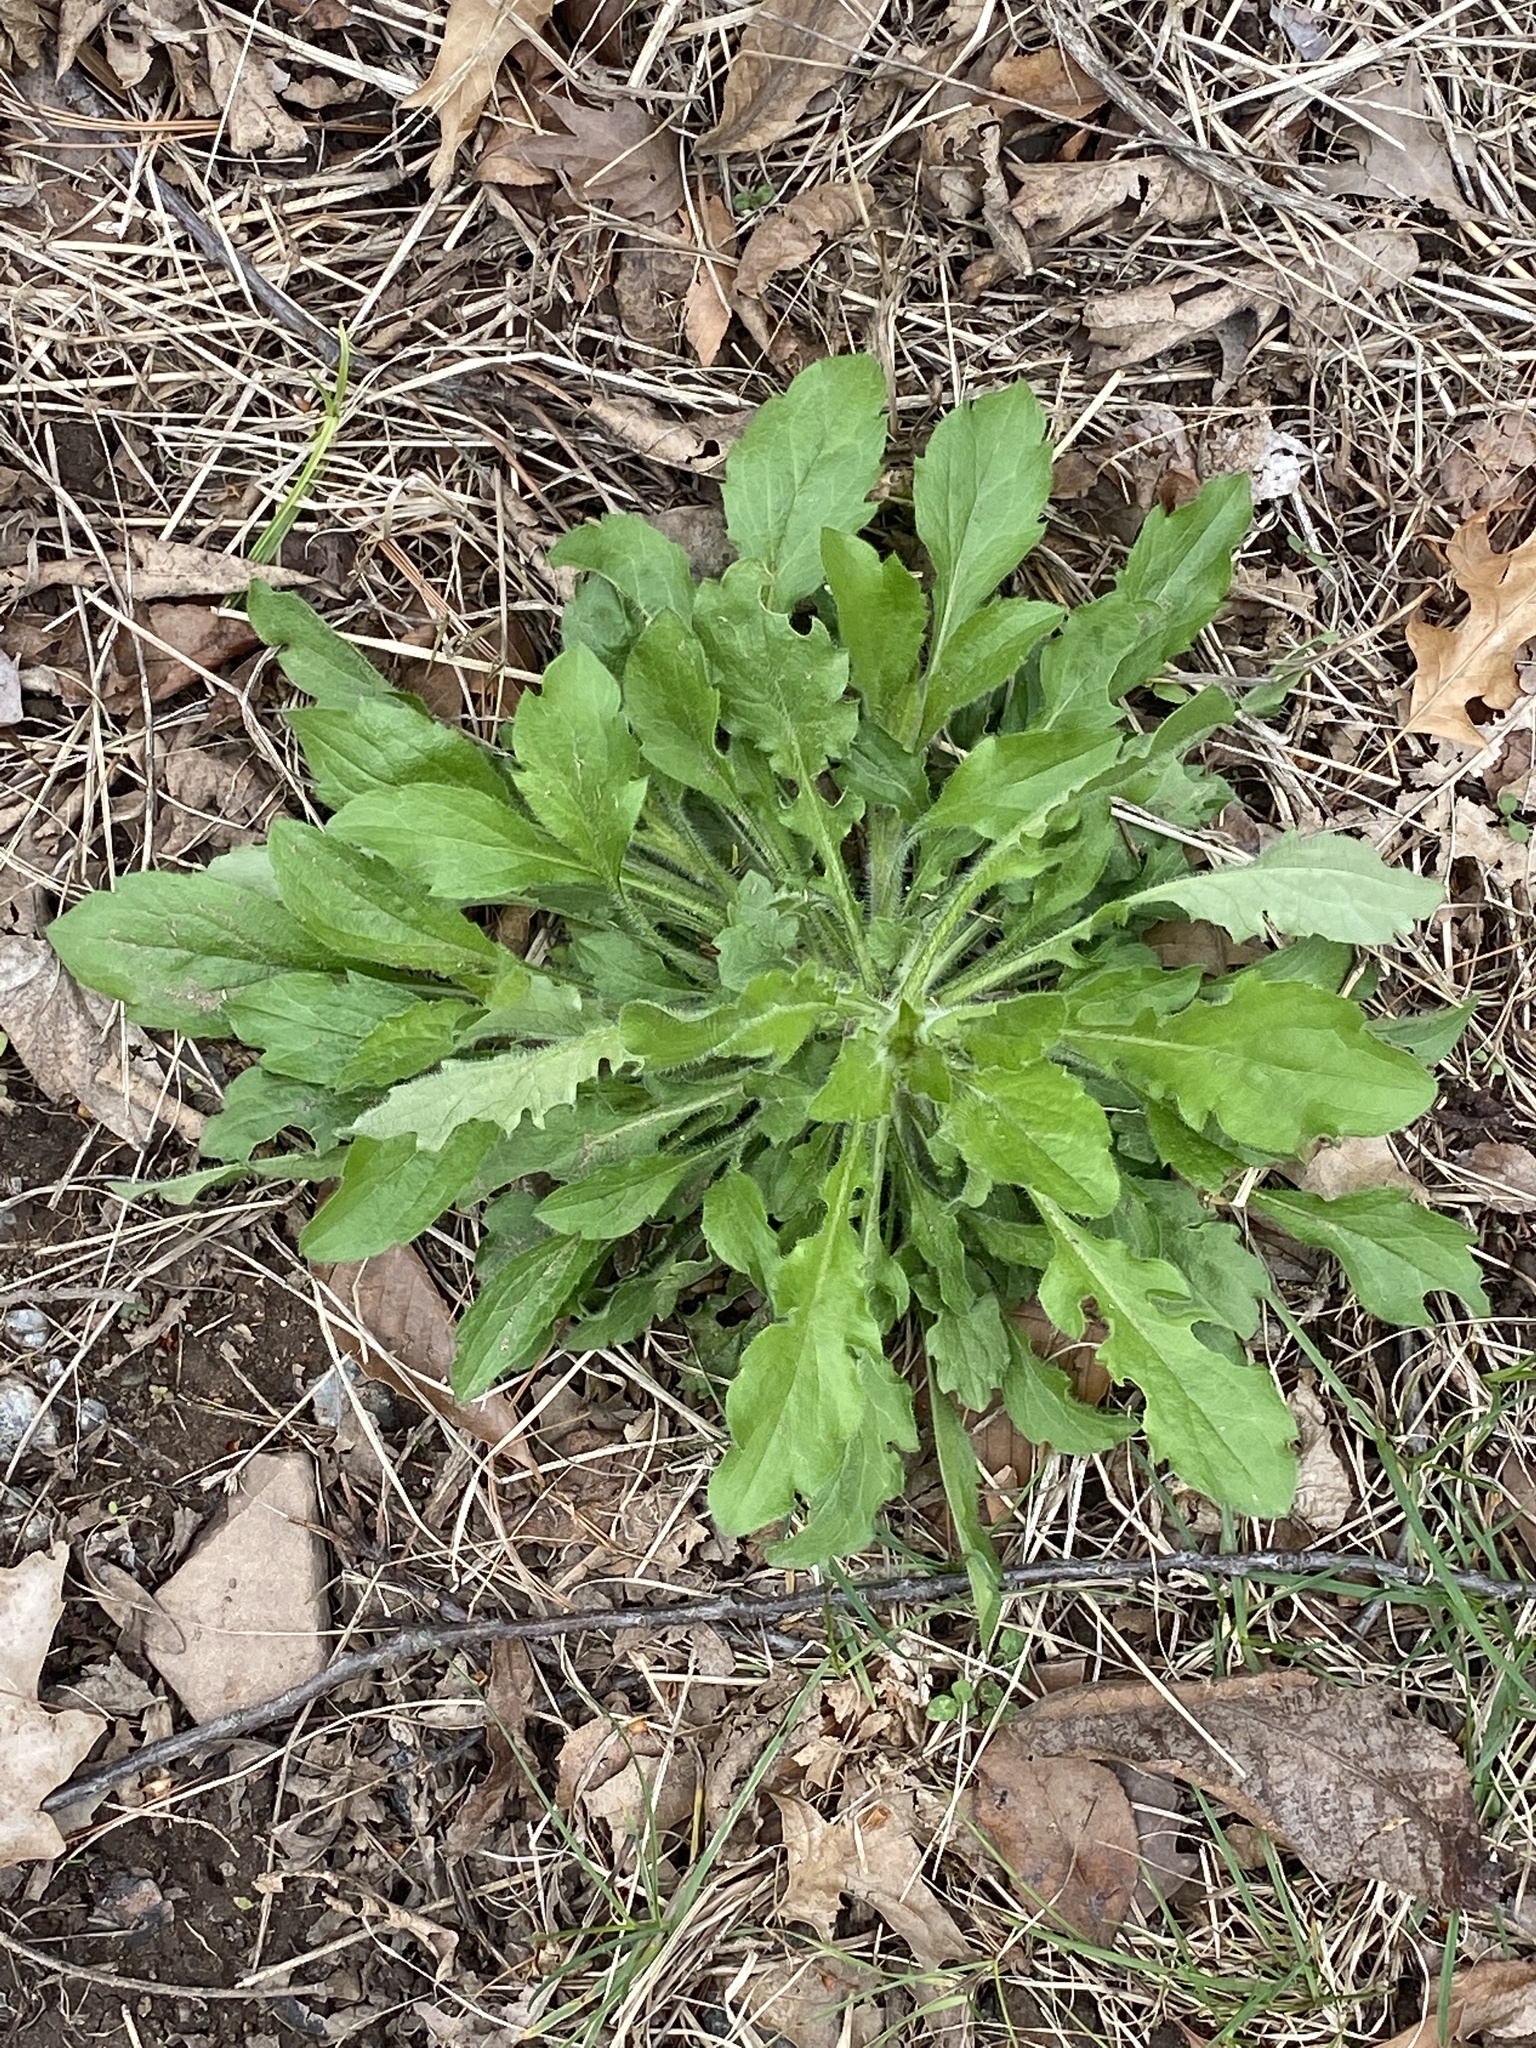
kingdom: Plantae
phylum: Tracheophyta
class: Magnoliopsida
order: Asterales
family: Asteraceae
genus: Erigeron
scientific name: Erigeron canadensis
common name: Canadian fleabane
